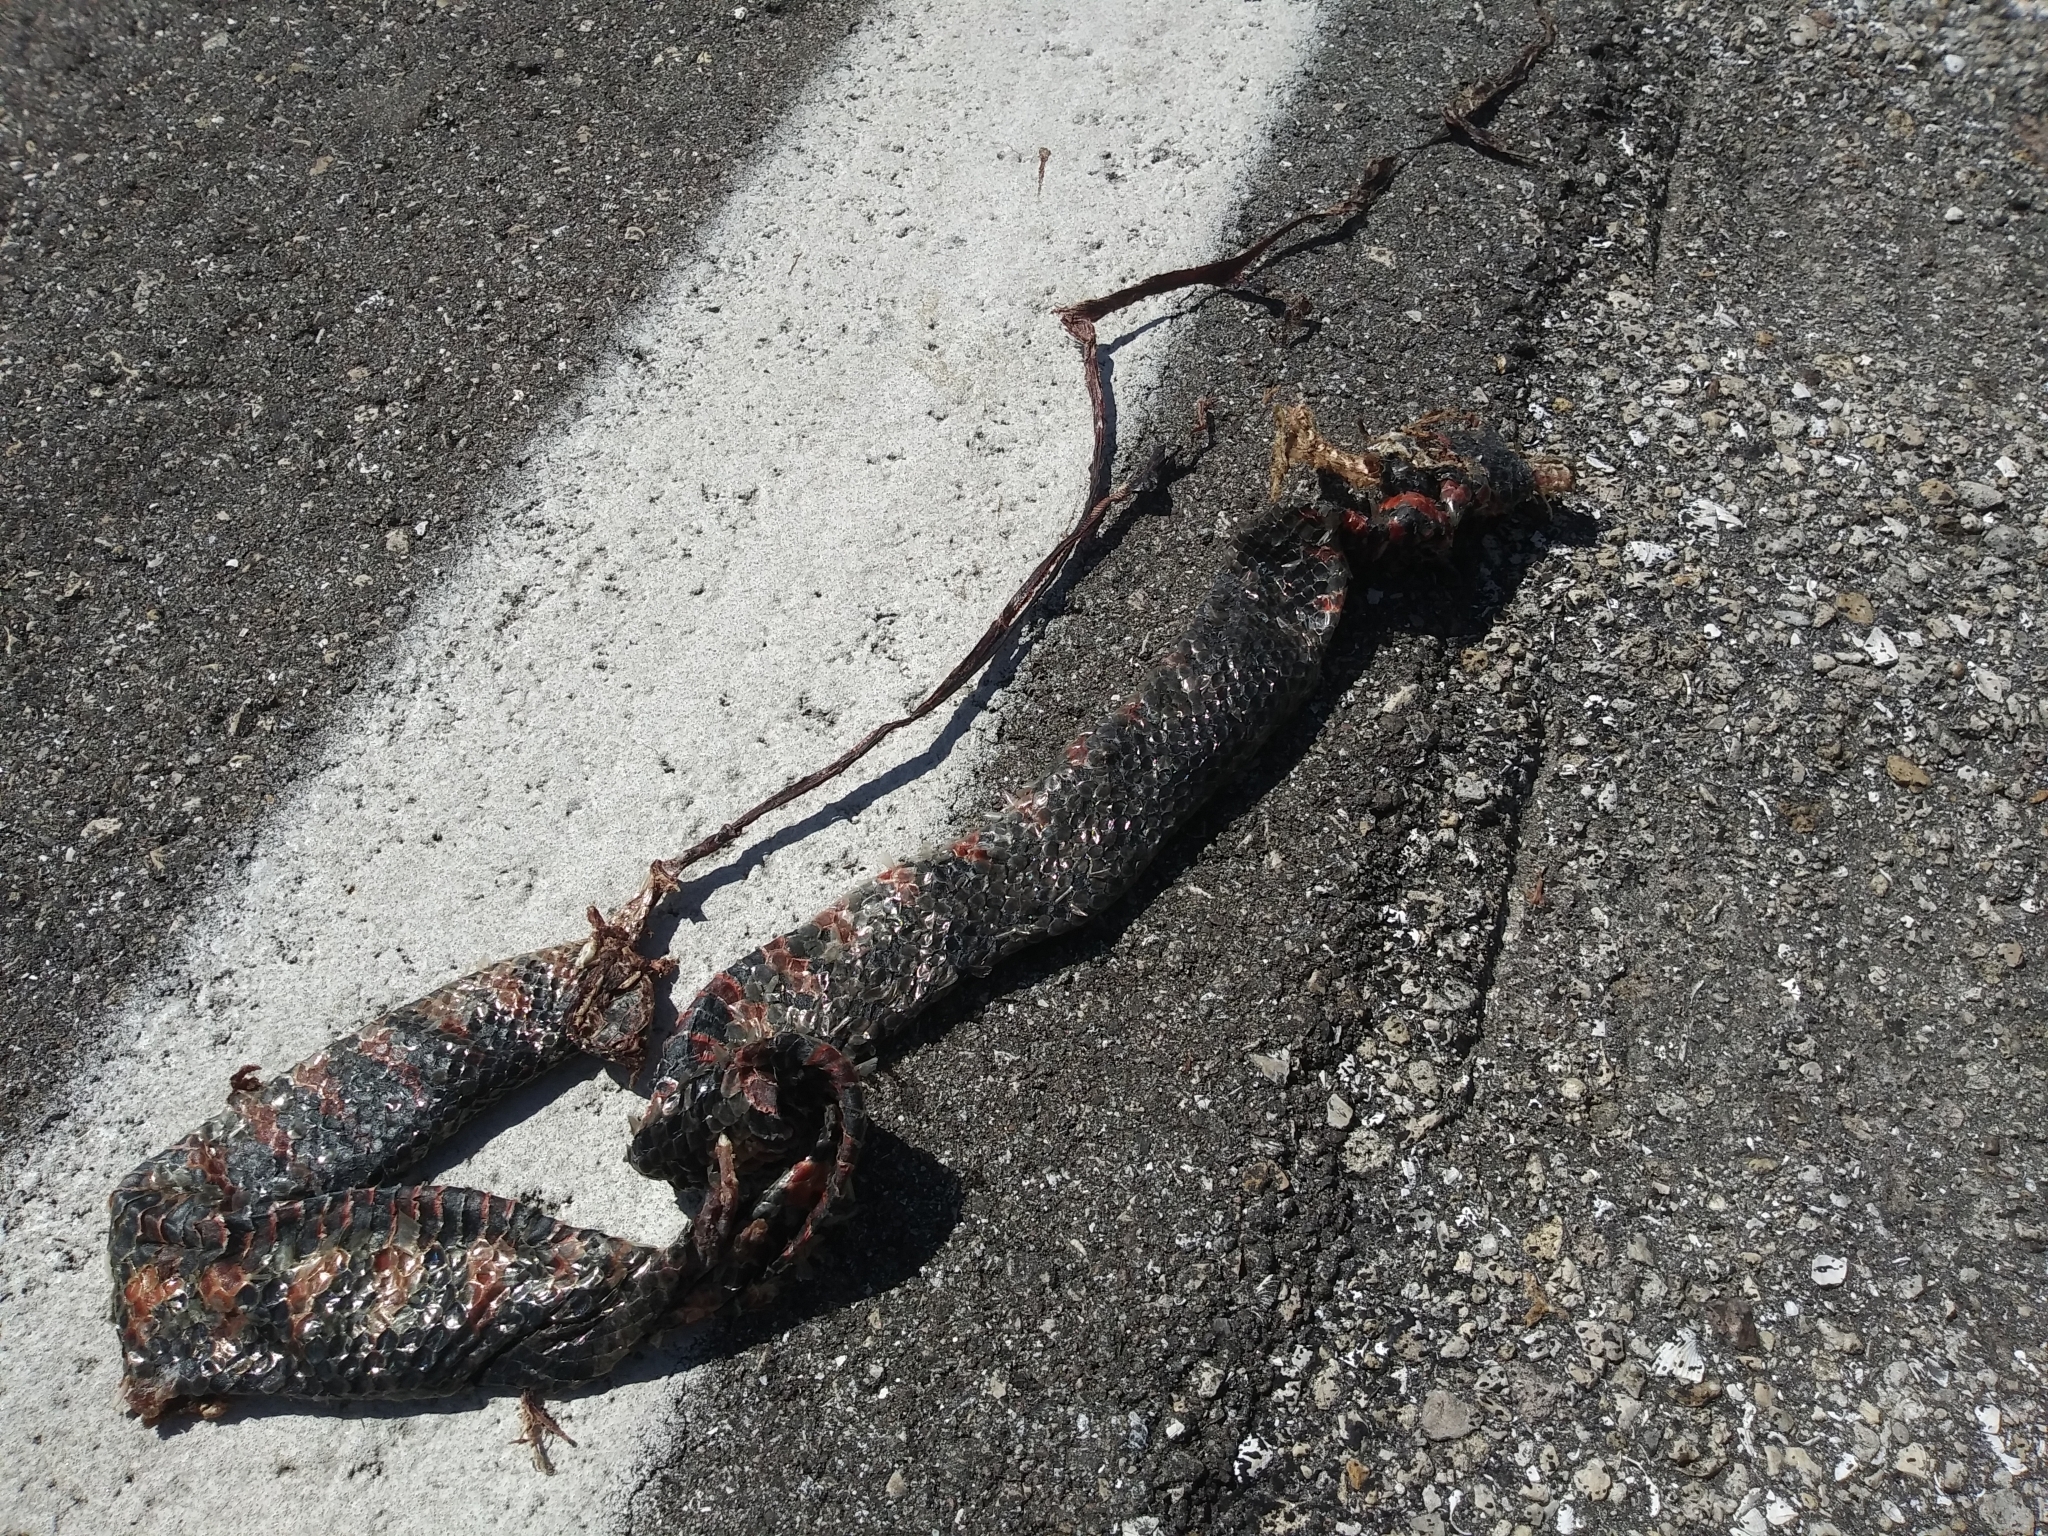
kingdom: Animalia
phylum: Chordata
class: Squamata
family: Colubridae
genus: Farancia
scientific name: Farancia abacura
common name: Mud snake
